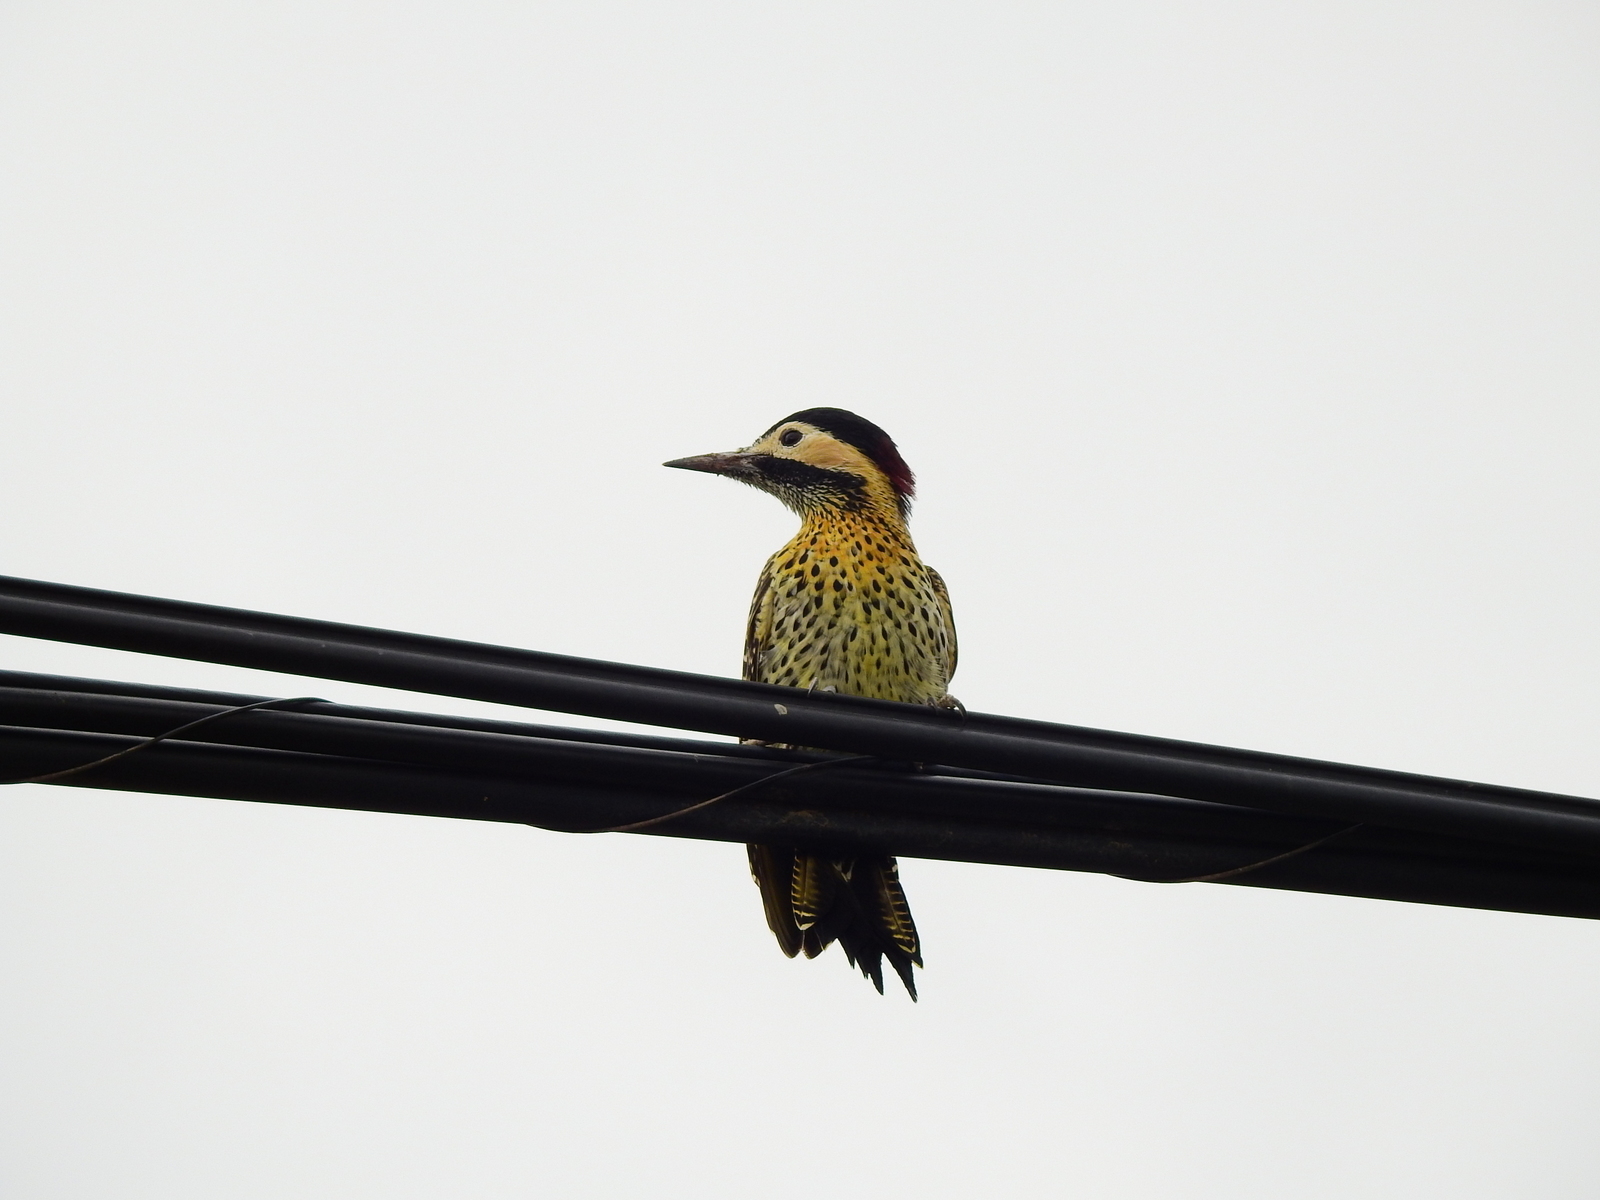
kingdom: Animalia
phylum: Chordata
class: Aves
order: Piciformes
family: Picidae
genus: Colaptes
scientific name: Colaptes melanochloros
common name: Green-barred woodpecker
